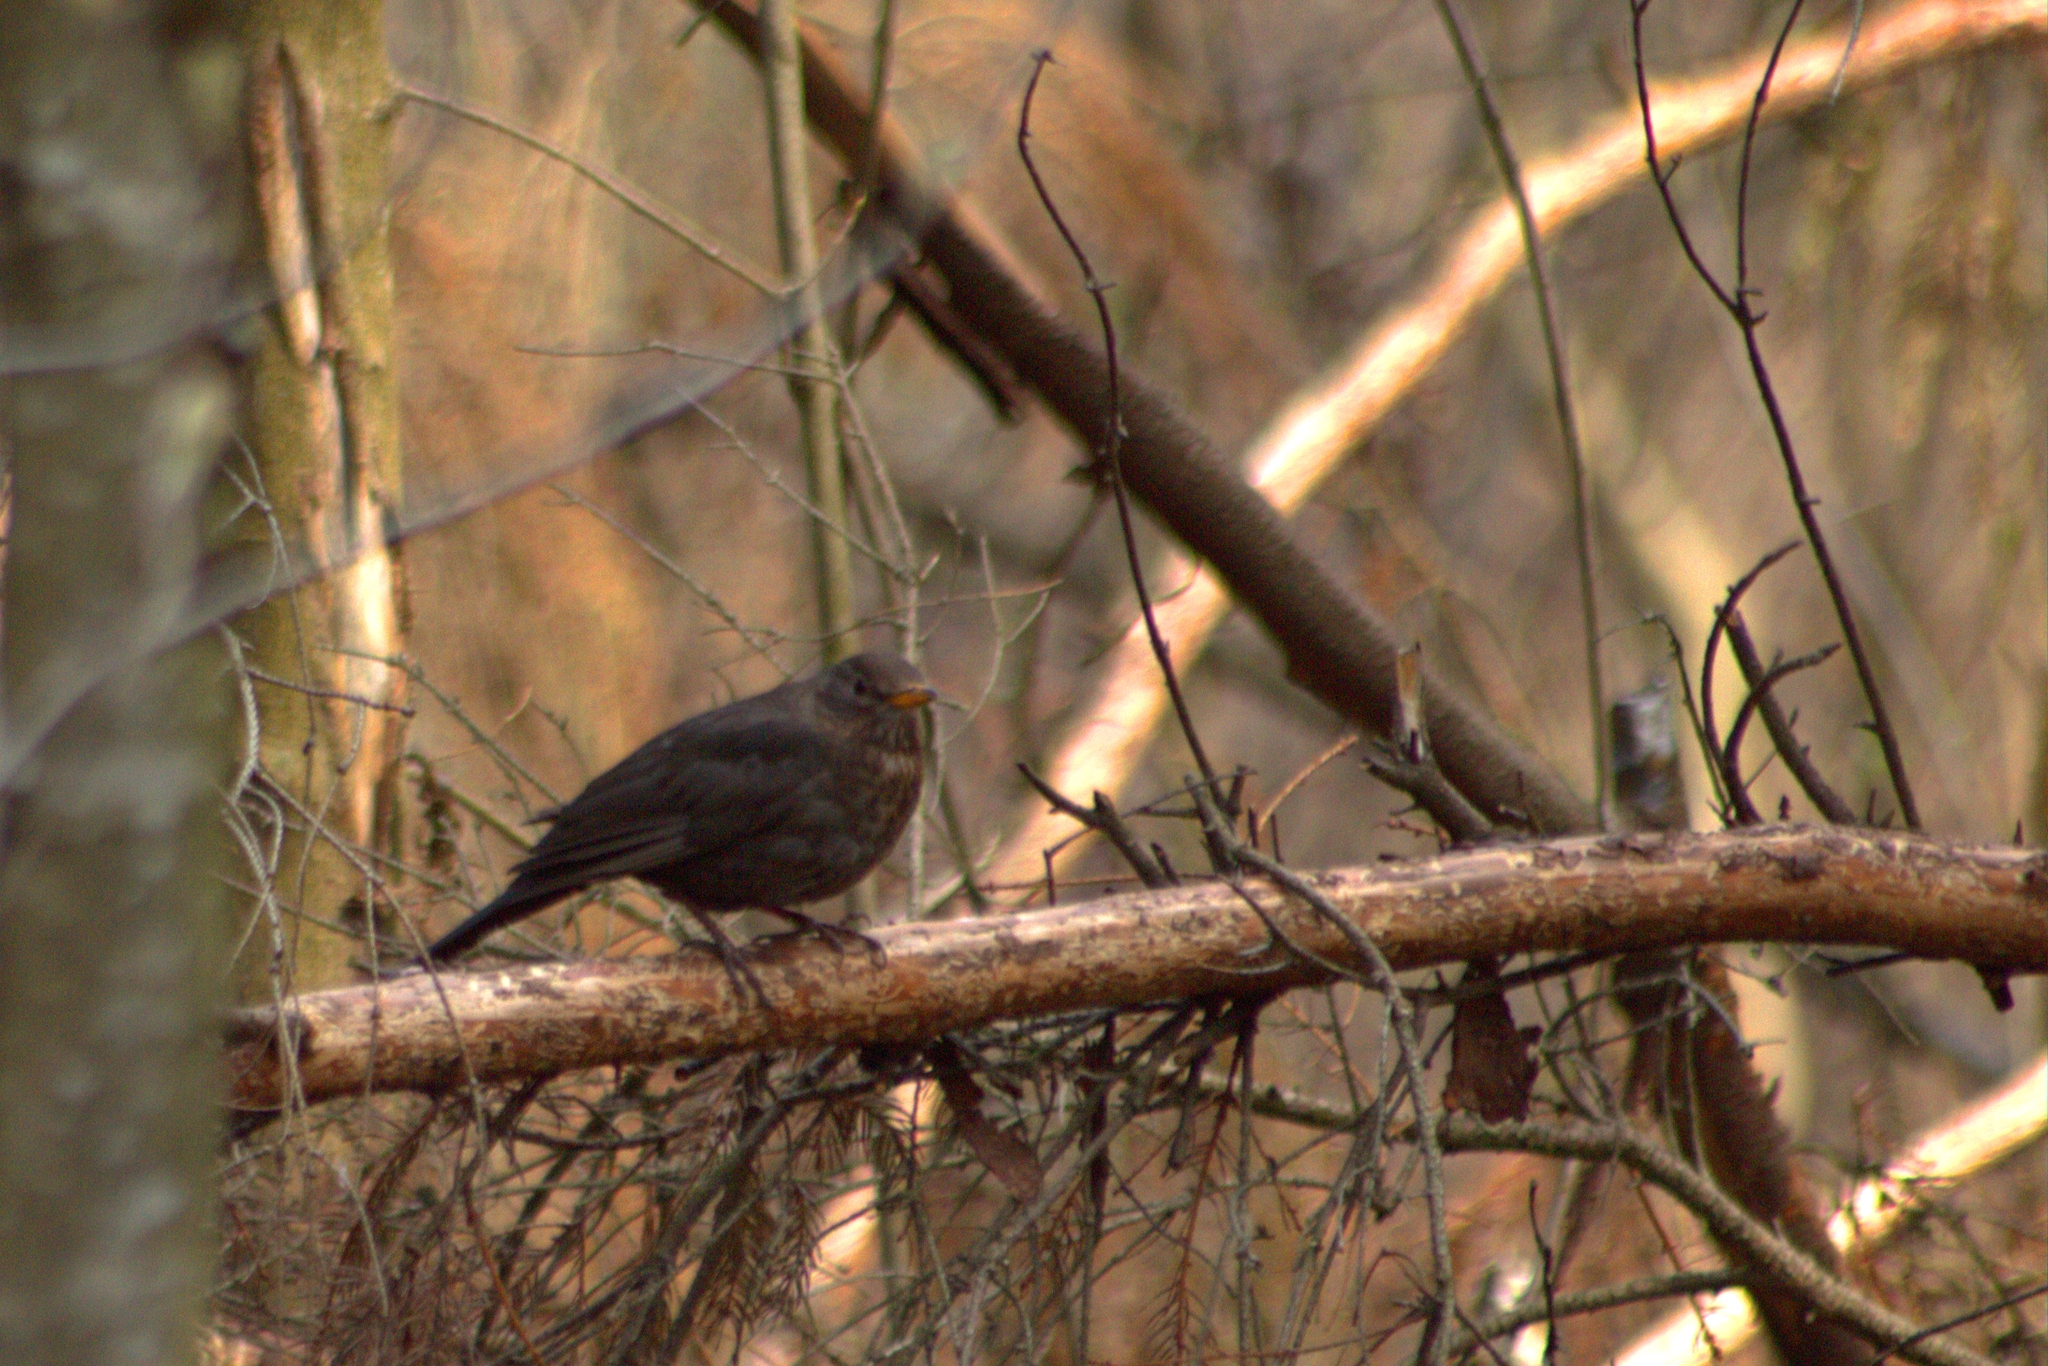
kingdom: Animalia
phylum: Chordata
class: Aves
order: Passeriformes
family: Turdidae
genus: Turdus
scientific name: Turdus merula
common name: Common blackbird
